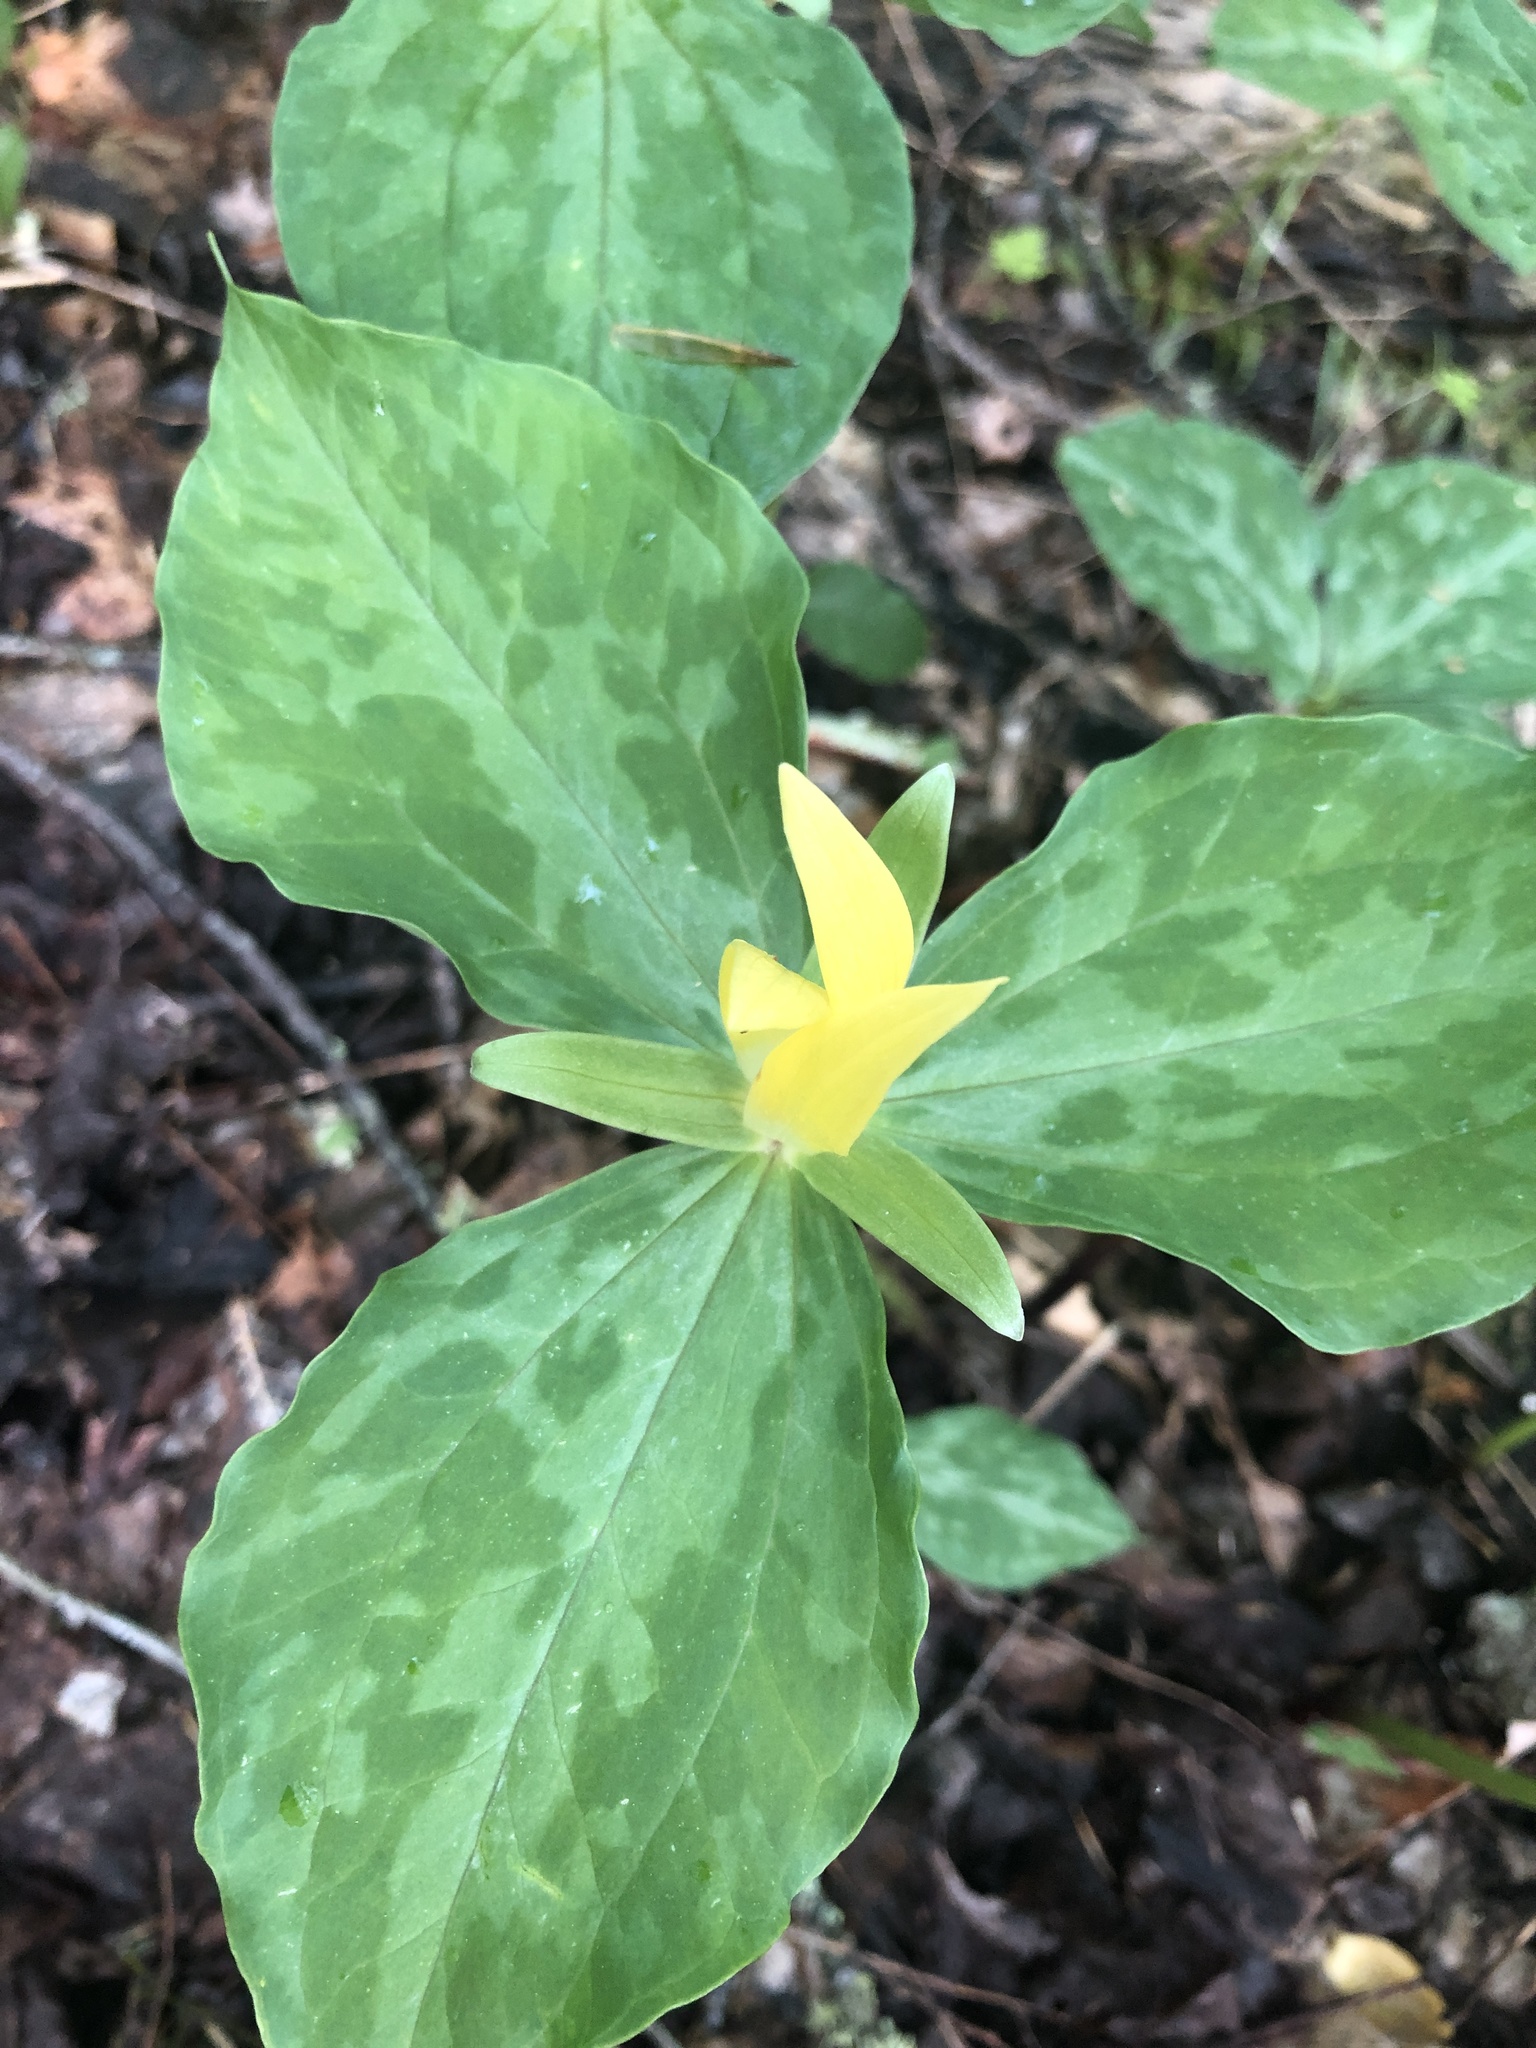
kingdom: Plantae
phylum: Tracheophyta
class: Liliopsida
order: Liliales
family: Melanthiaceae
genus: Trillium
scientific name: Trillium luteum
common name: Wax trillium
